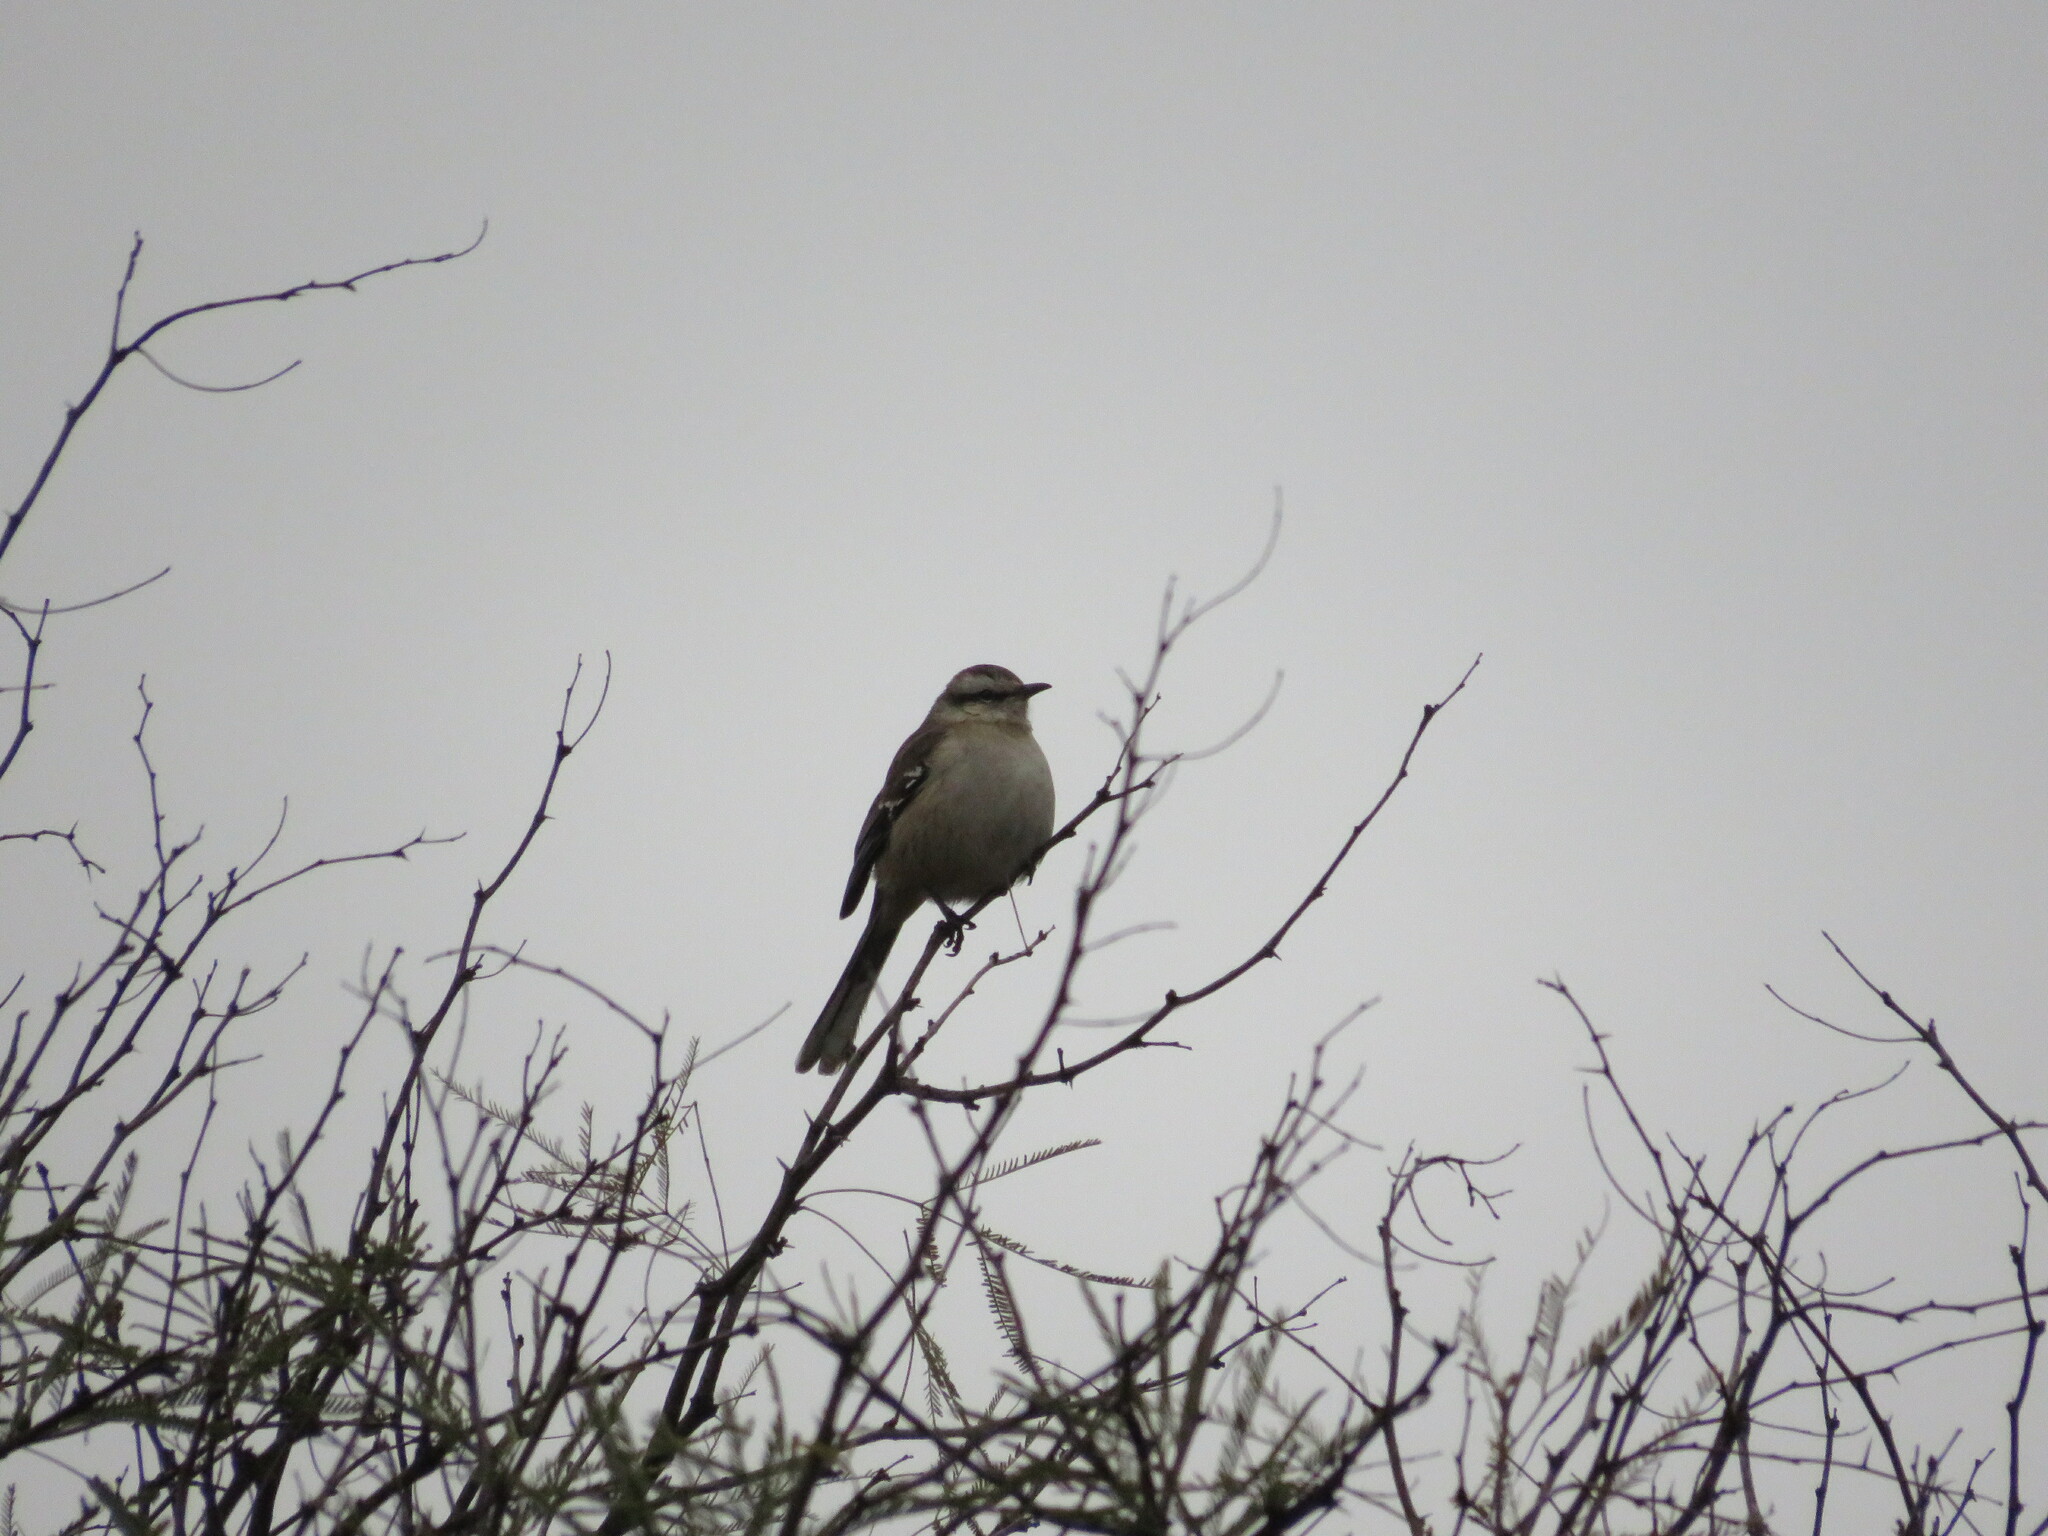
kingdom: Animalia
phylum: Chordata
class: Aves
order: Passeriformes
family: Mimidae
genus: Mimus
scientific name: Mimus saturninus
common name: Chalk-browed mockingbird
